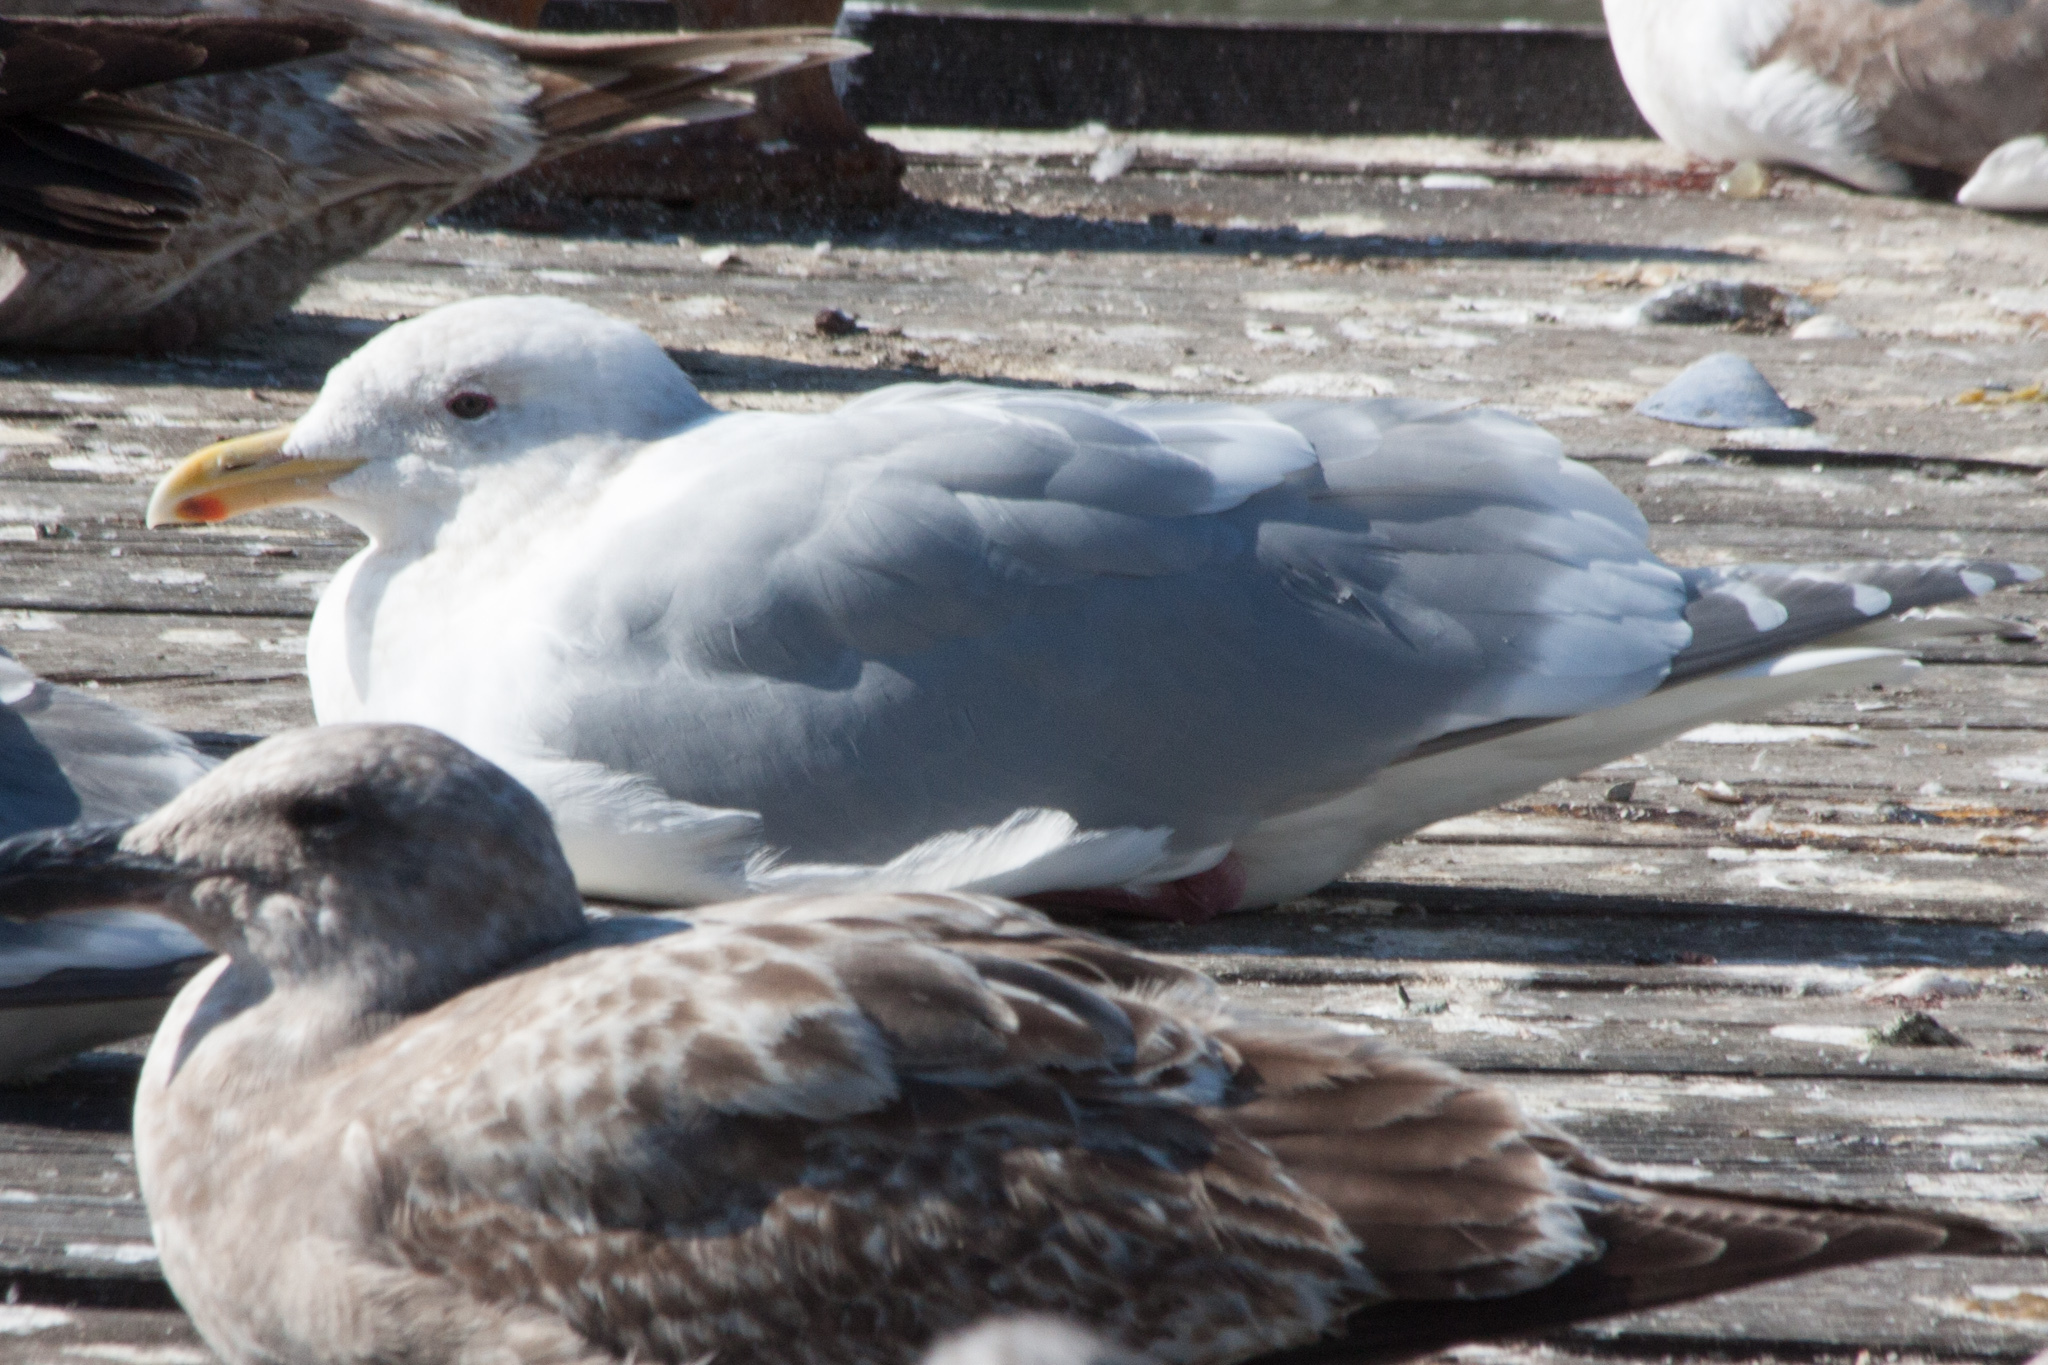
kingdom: Animalia
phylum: Chordata
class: Aves
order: Charadriiformes
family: Laridae
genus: Larus
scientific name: Larus glaucescens
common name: Glaucous-winged gull
